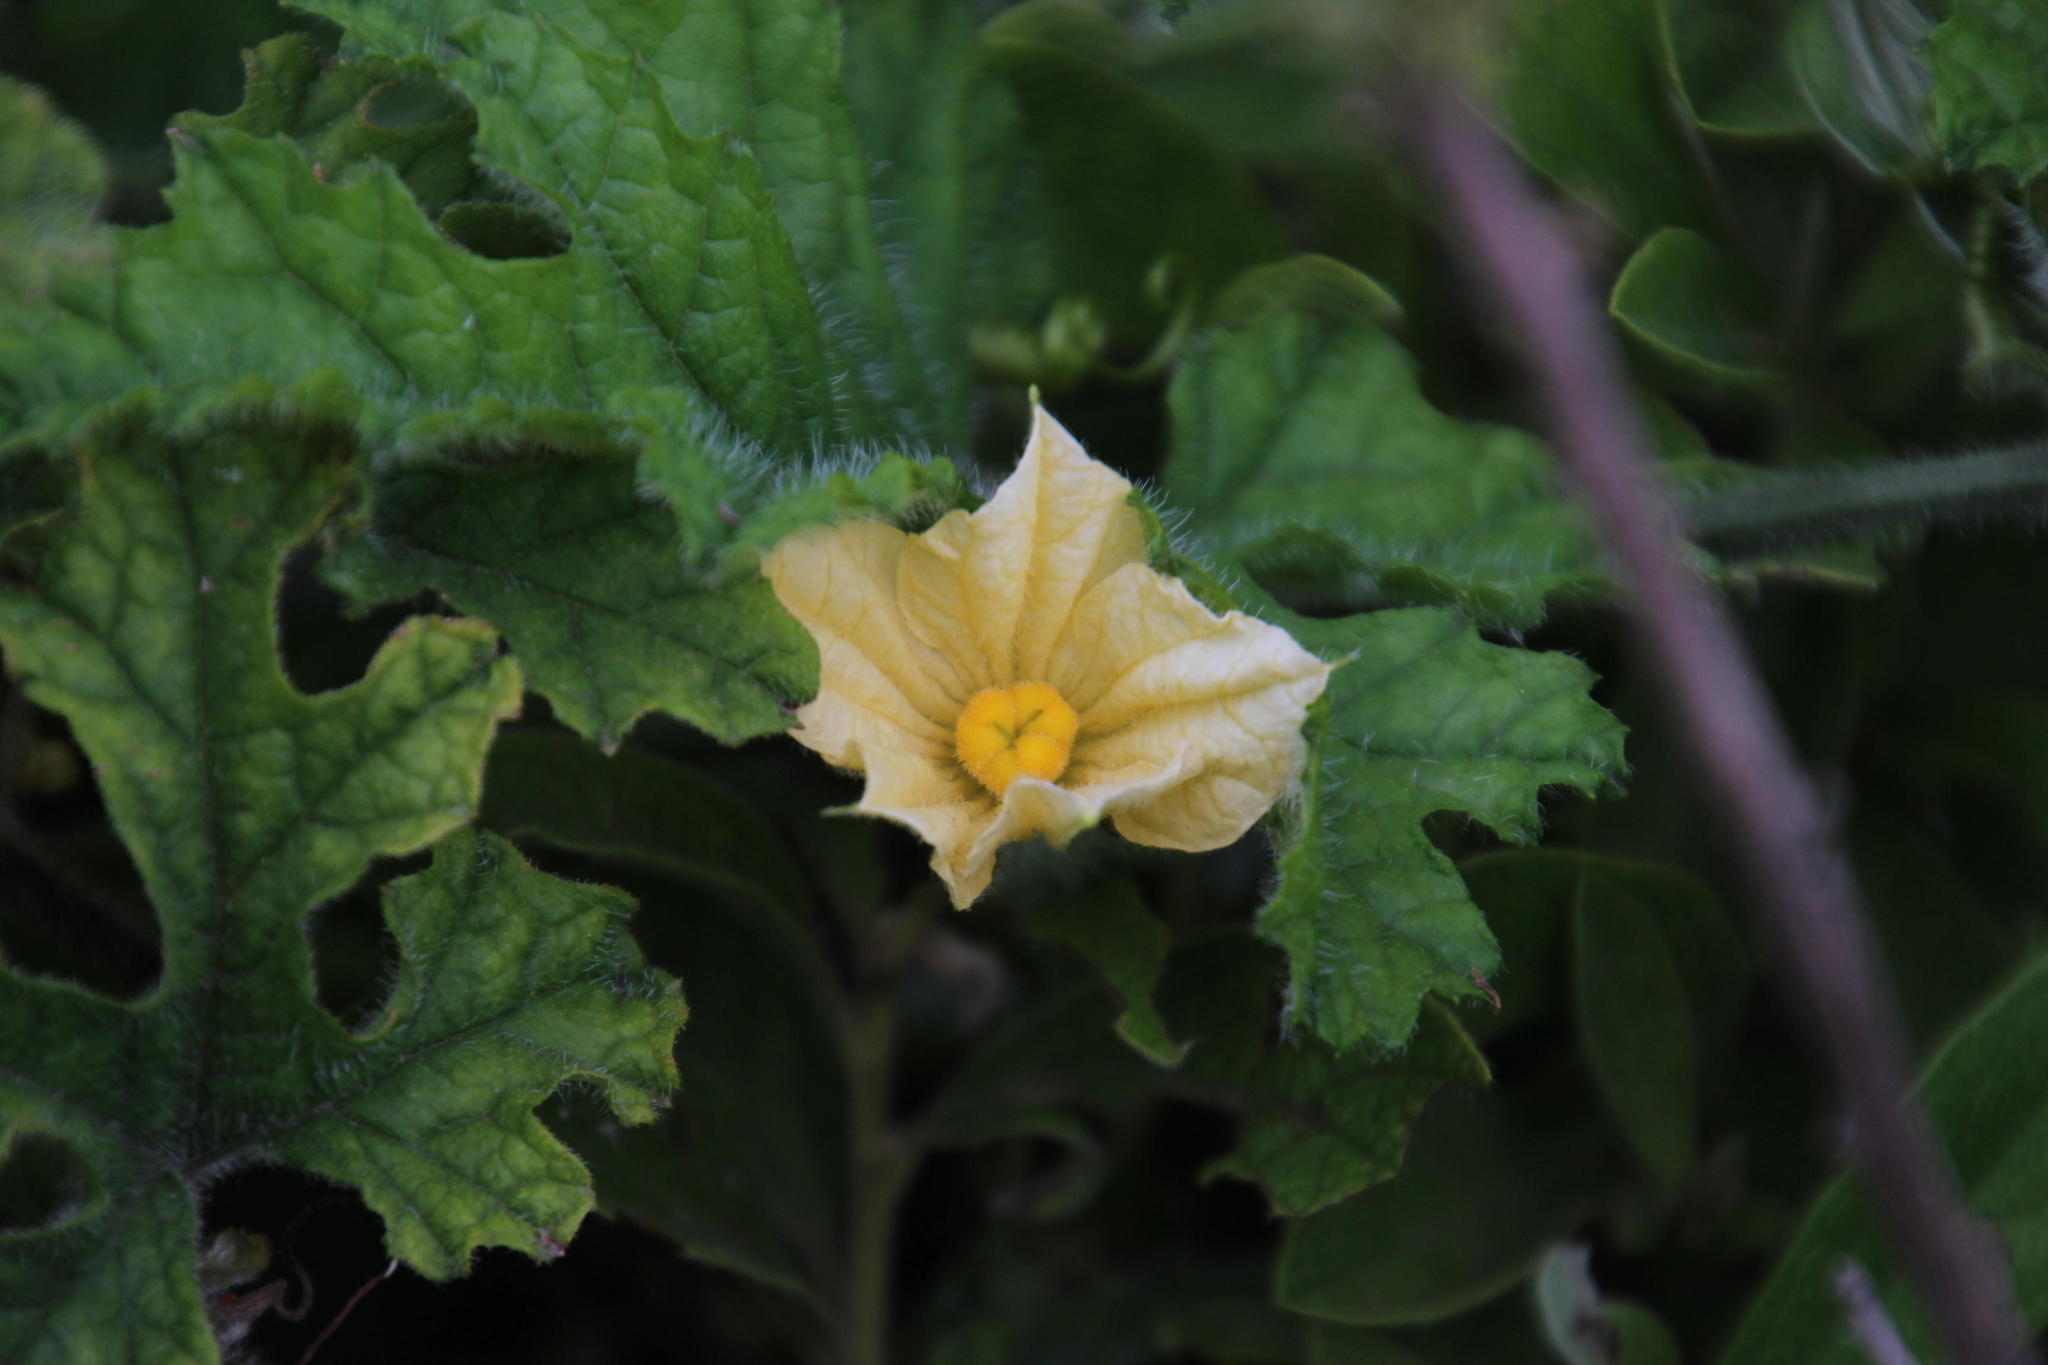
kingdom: Plantae
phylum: Tracheophyta
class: Magnoliopsida
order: Cucurbitales
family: Cucurbitaceae
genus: Coccinia
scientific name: Coccinia hirtella
